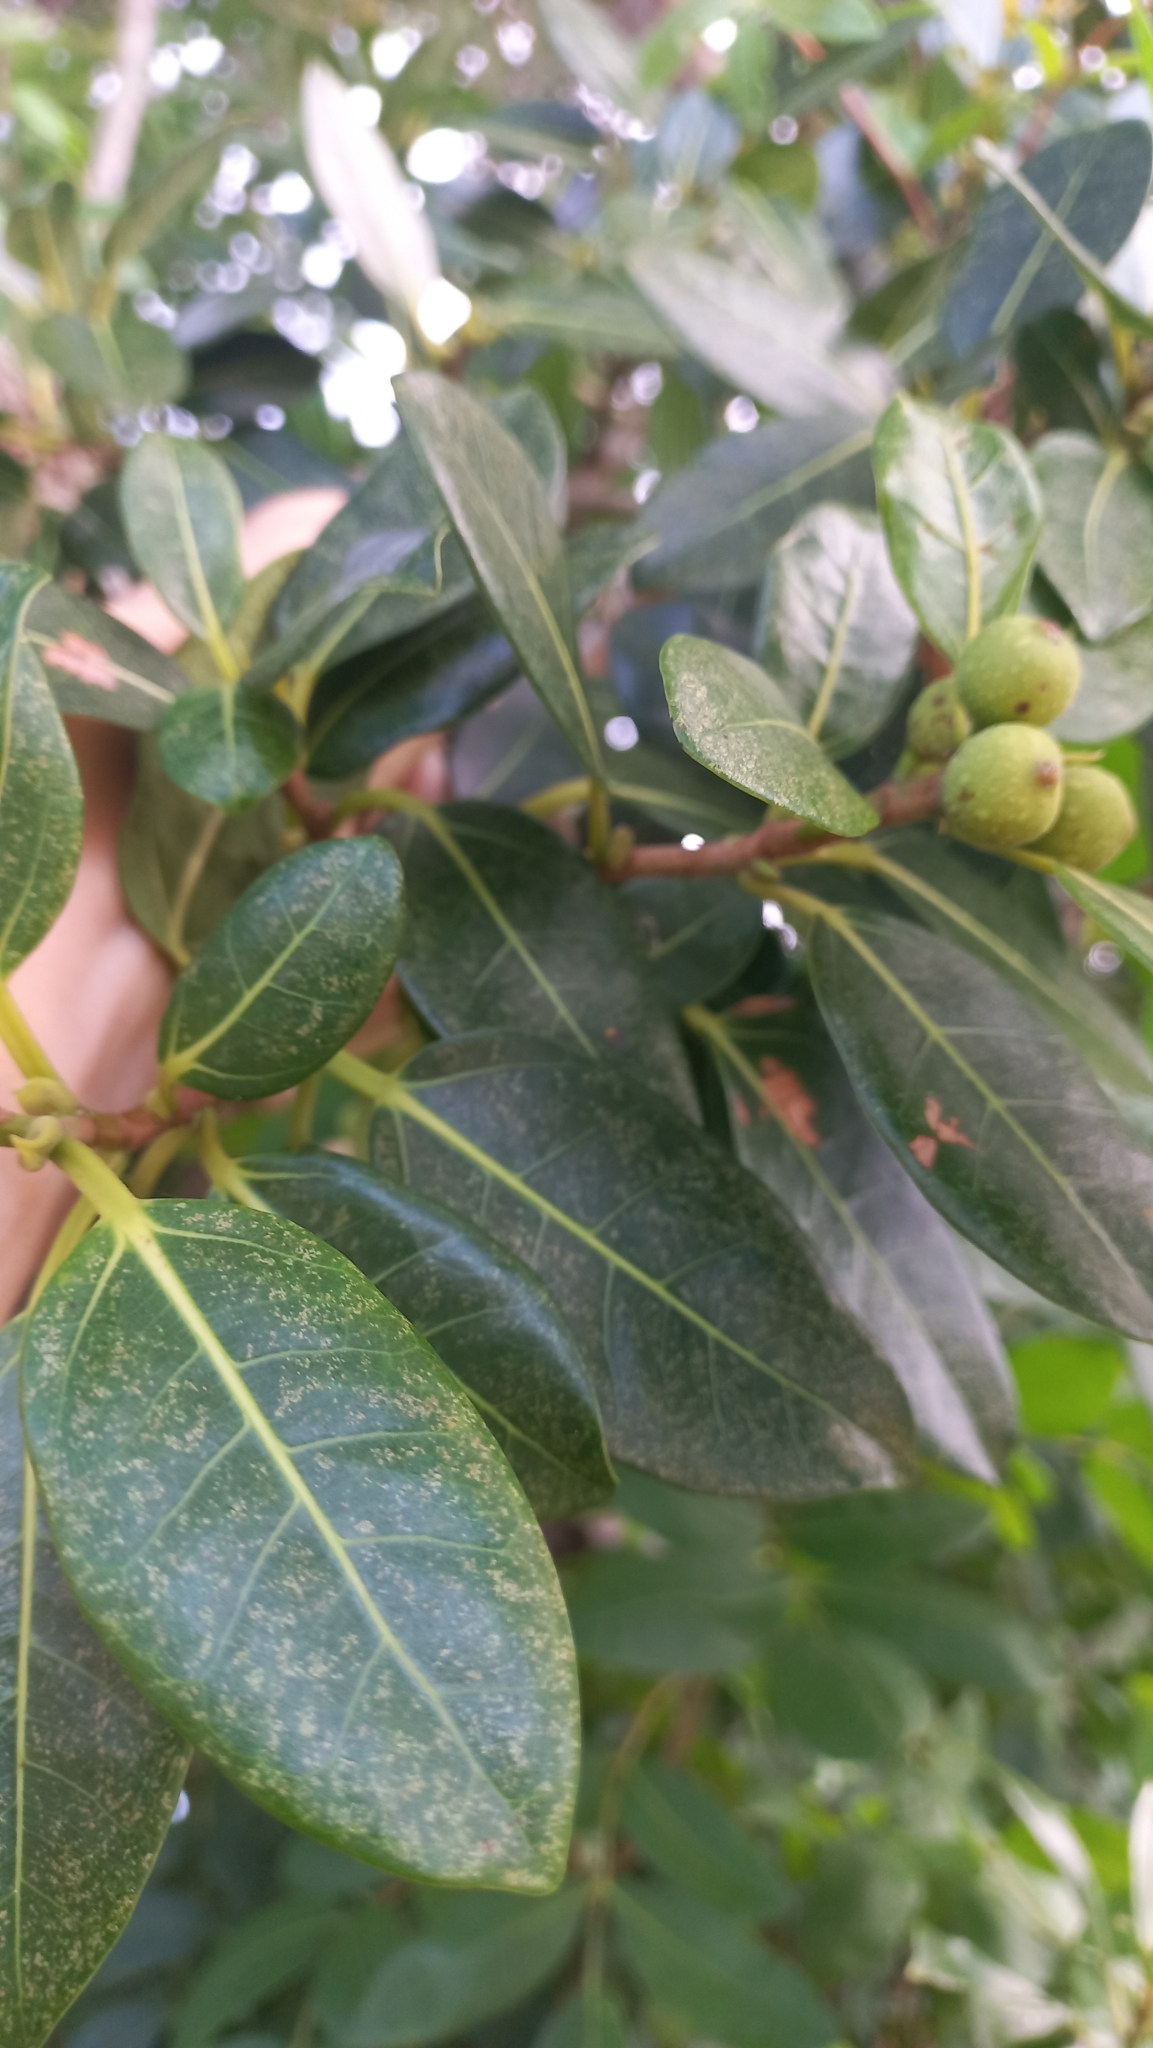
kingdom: Plantae
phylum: Tracheophyta
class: Magnoliopsida
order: Rosales
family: Moraceae
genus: Ficus
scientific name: Ficus cestrifolia
